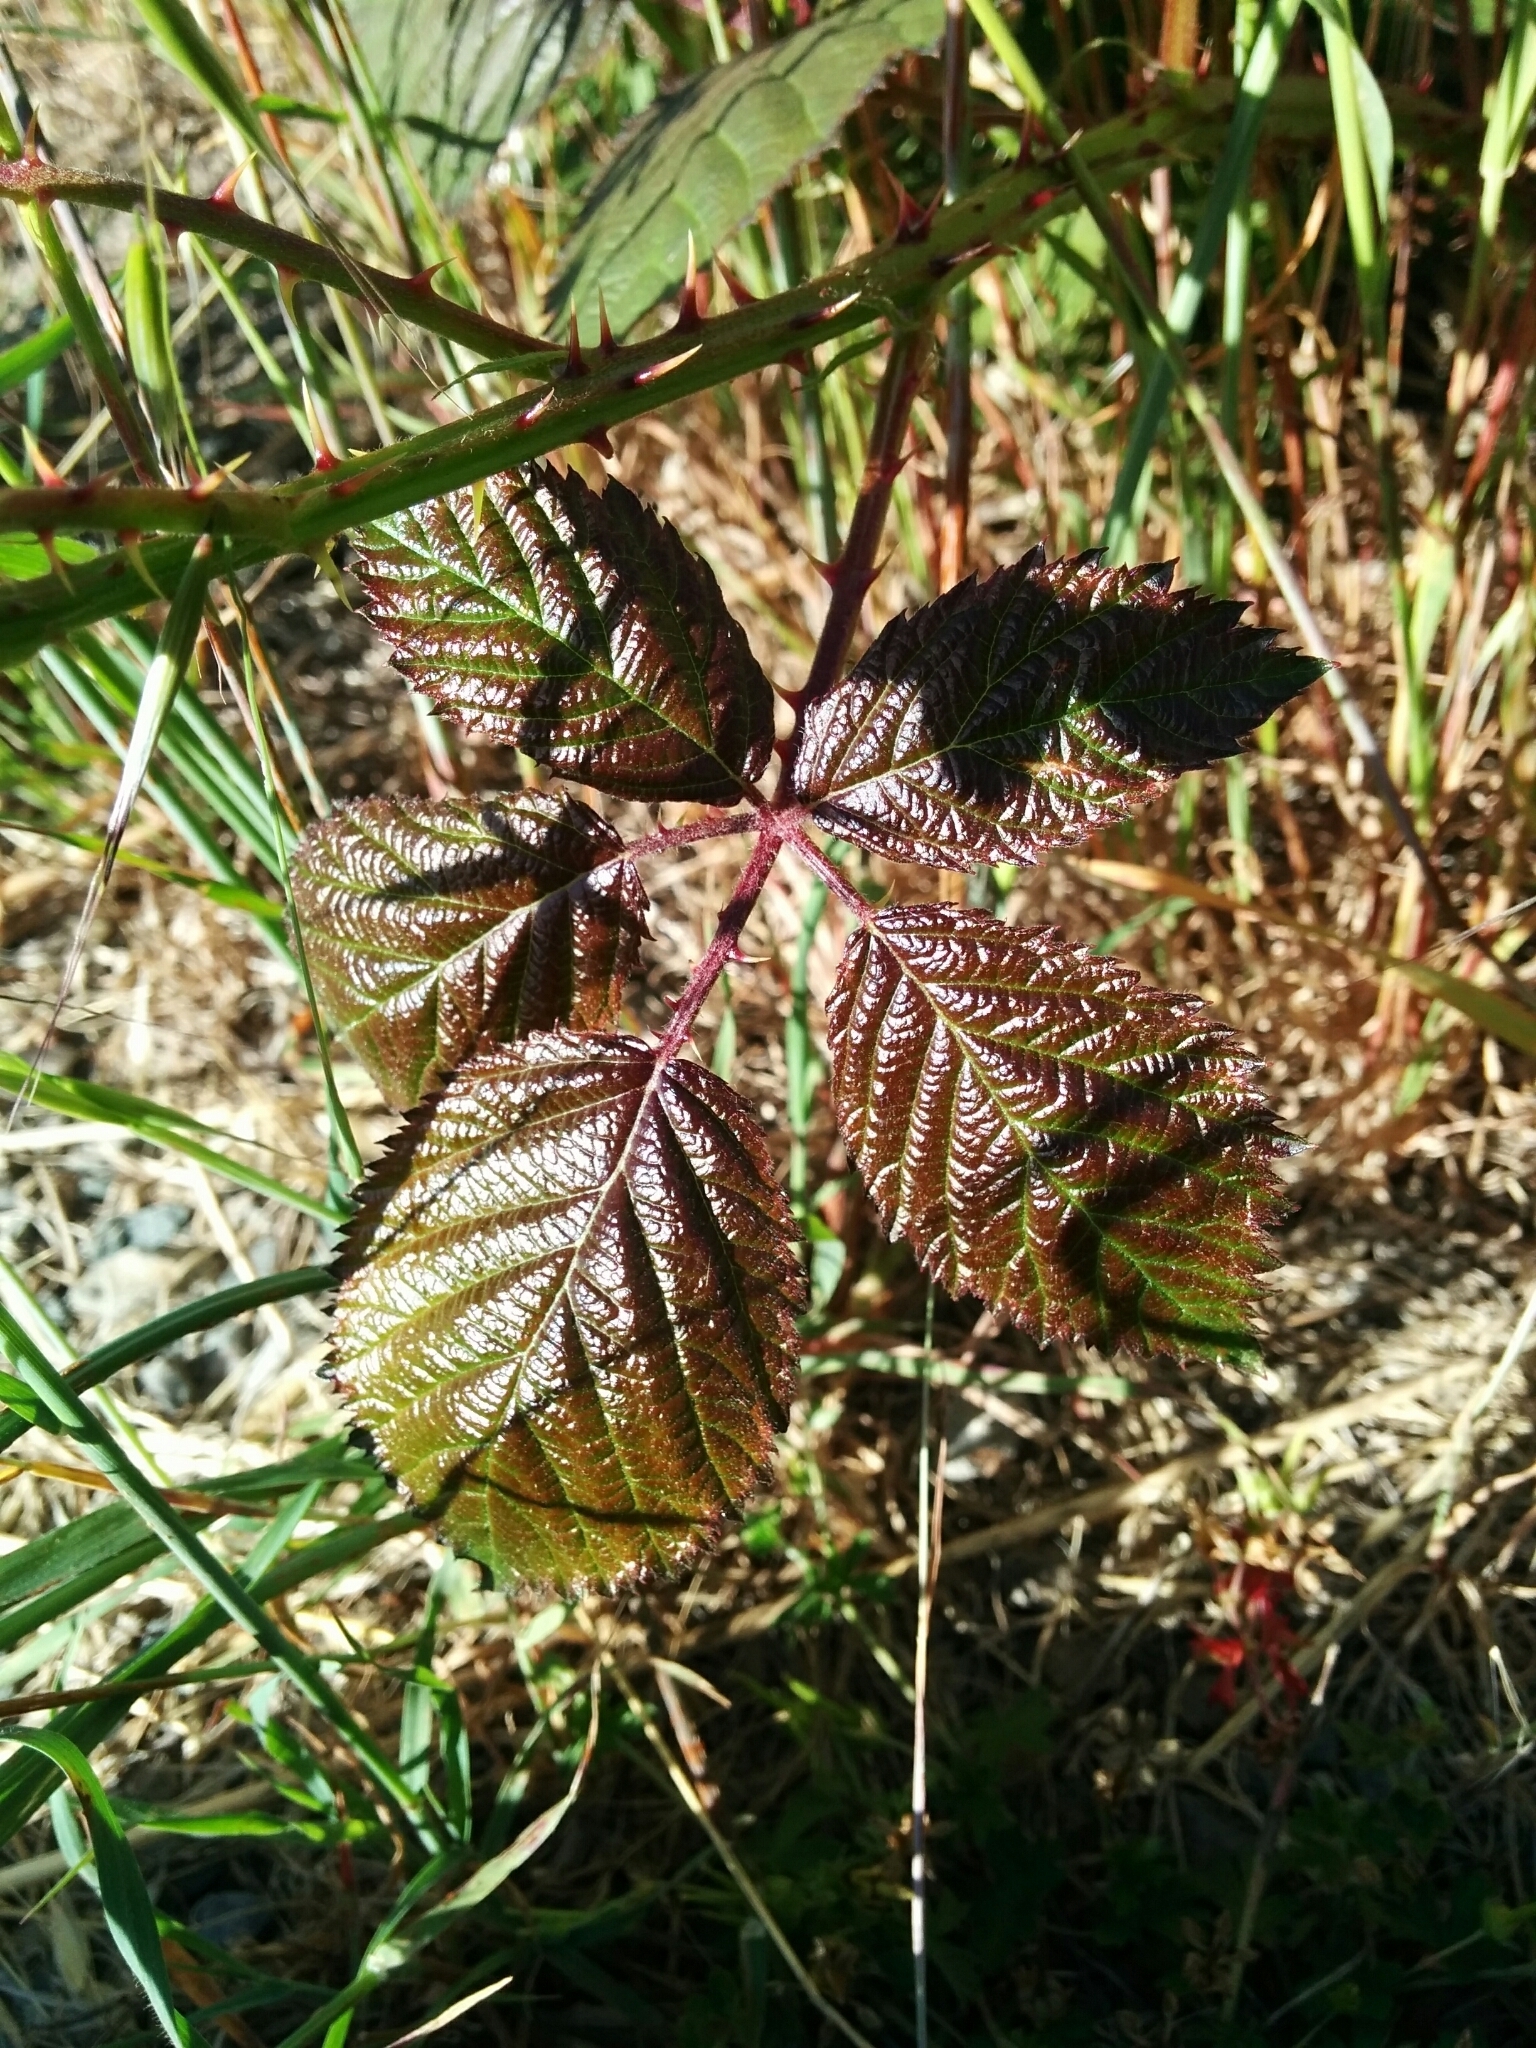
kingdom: Plantae
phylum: Tracheophyta
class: Magnoliopsida
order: Rosales
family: Rosaceae
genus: Rubus
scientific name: Rubus armeniacus
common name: Himalayan blackberry
